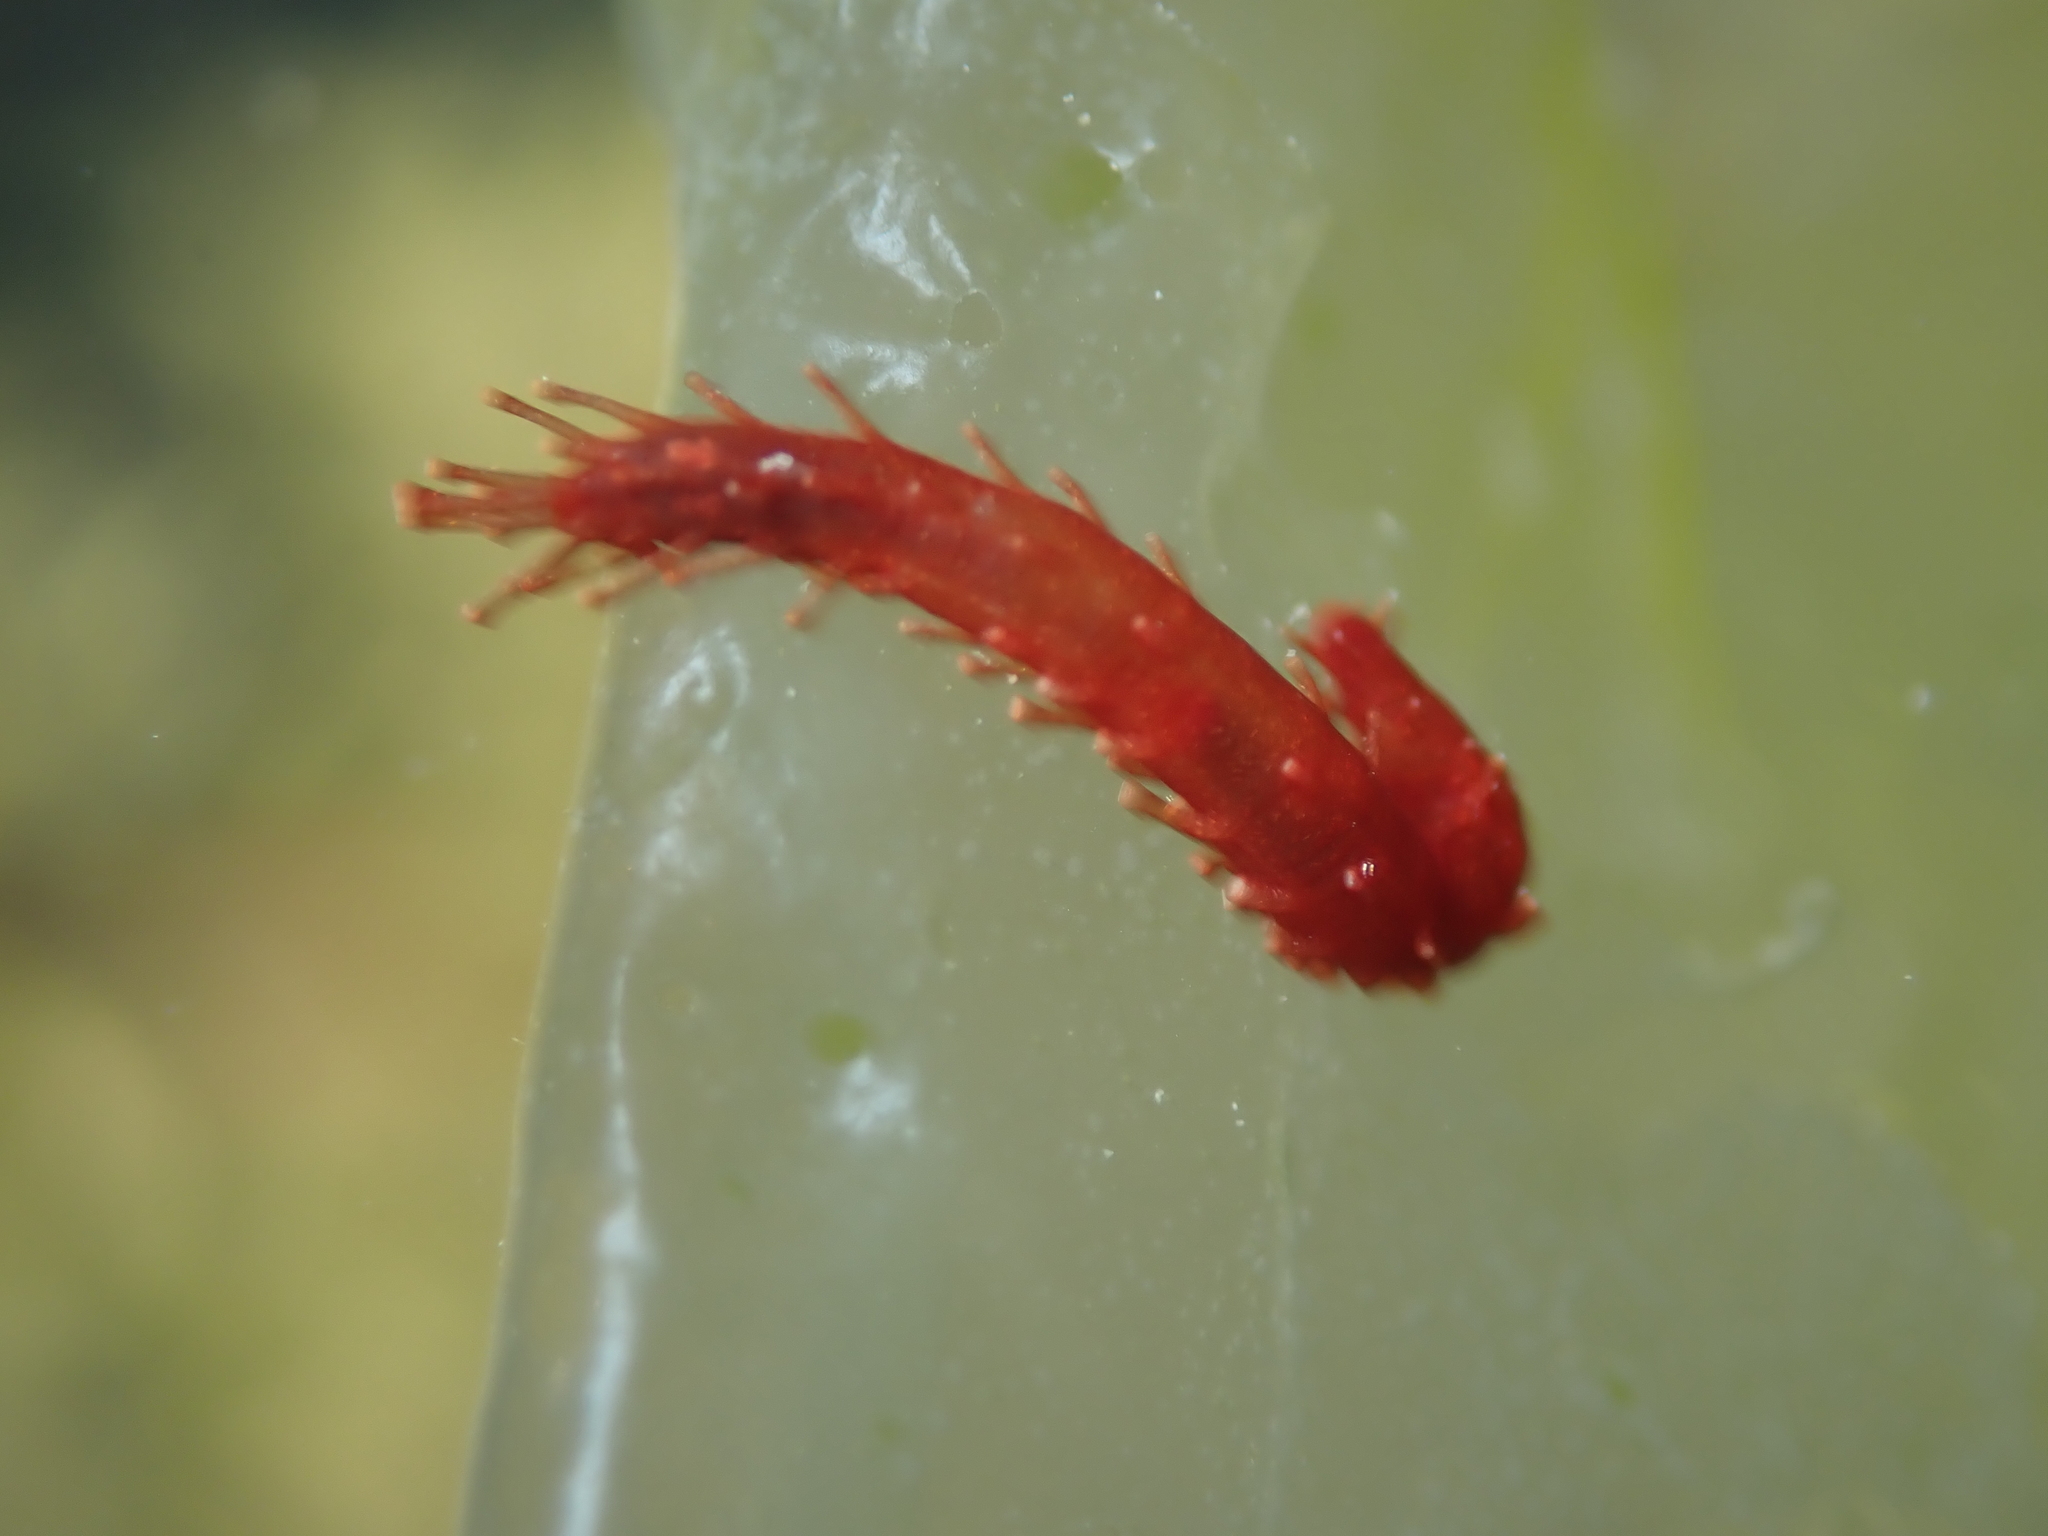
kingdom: Animalia
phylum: Echinodermata
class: Holothuroidea
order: Dendrochirotida
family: Cucumariidae
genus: Squamocnus
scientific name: Squamocnus brevidentis
